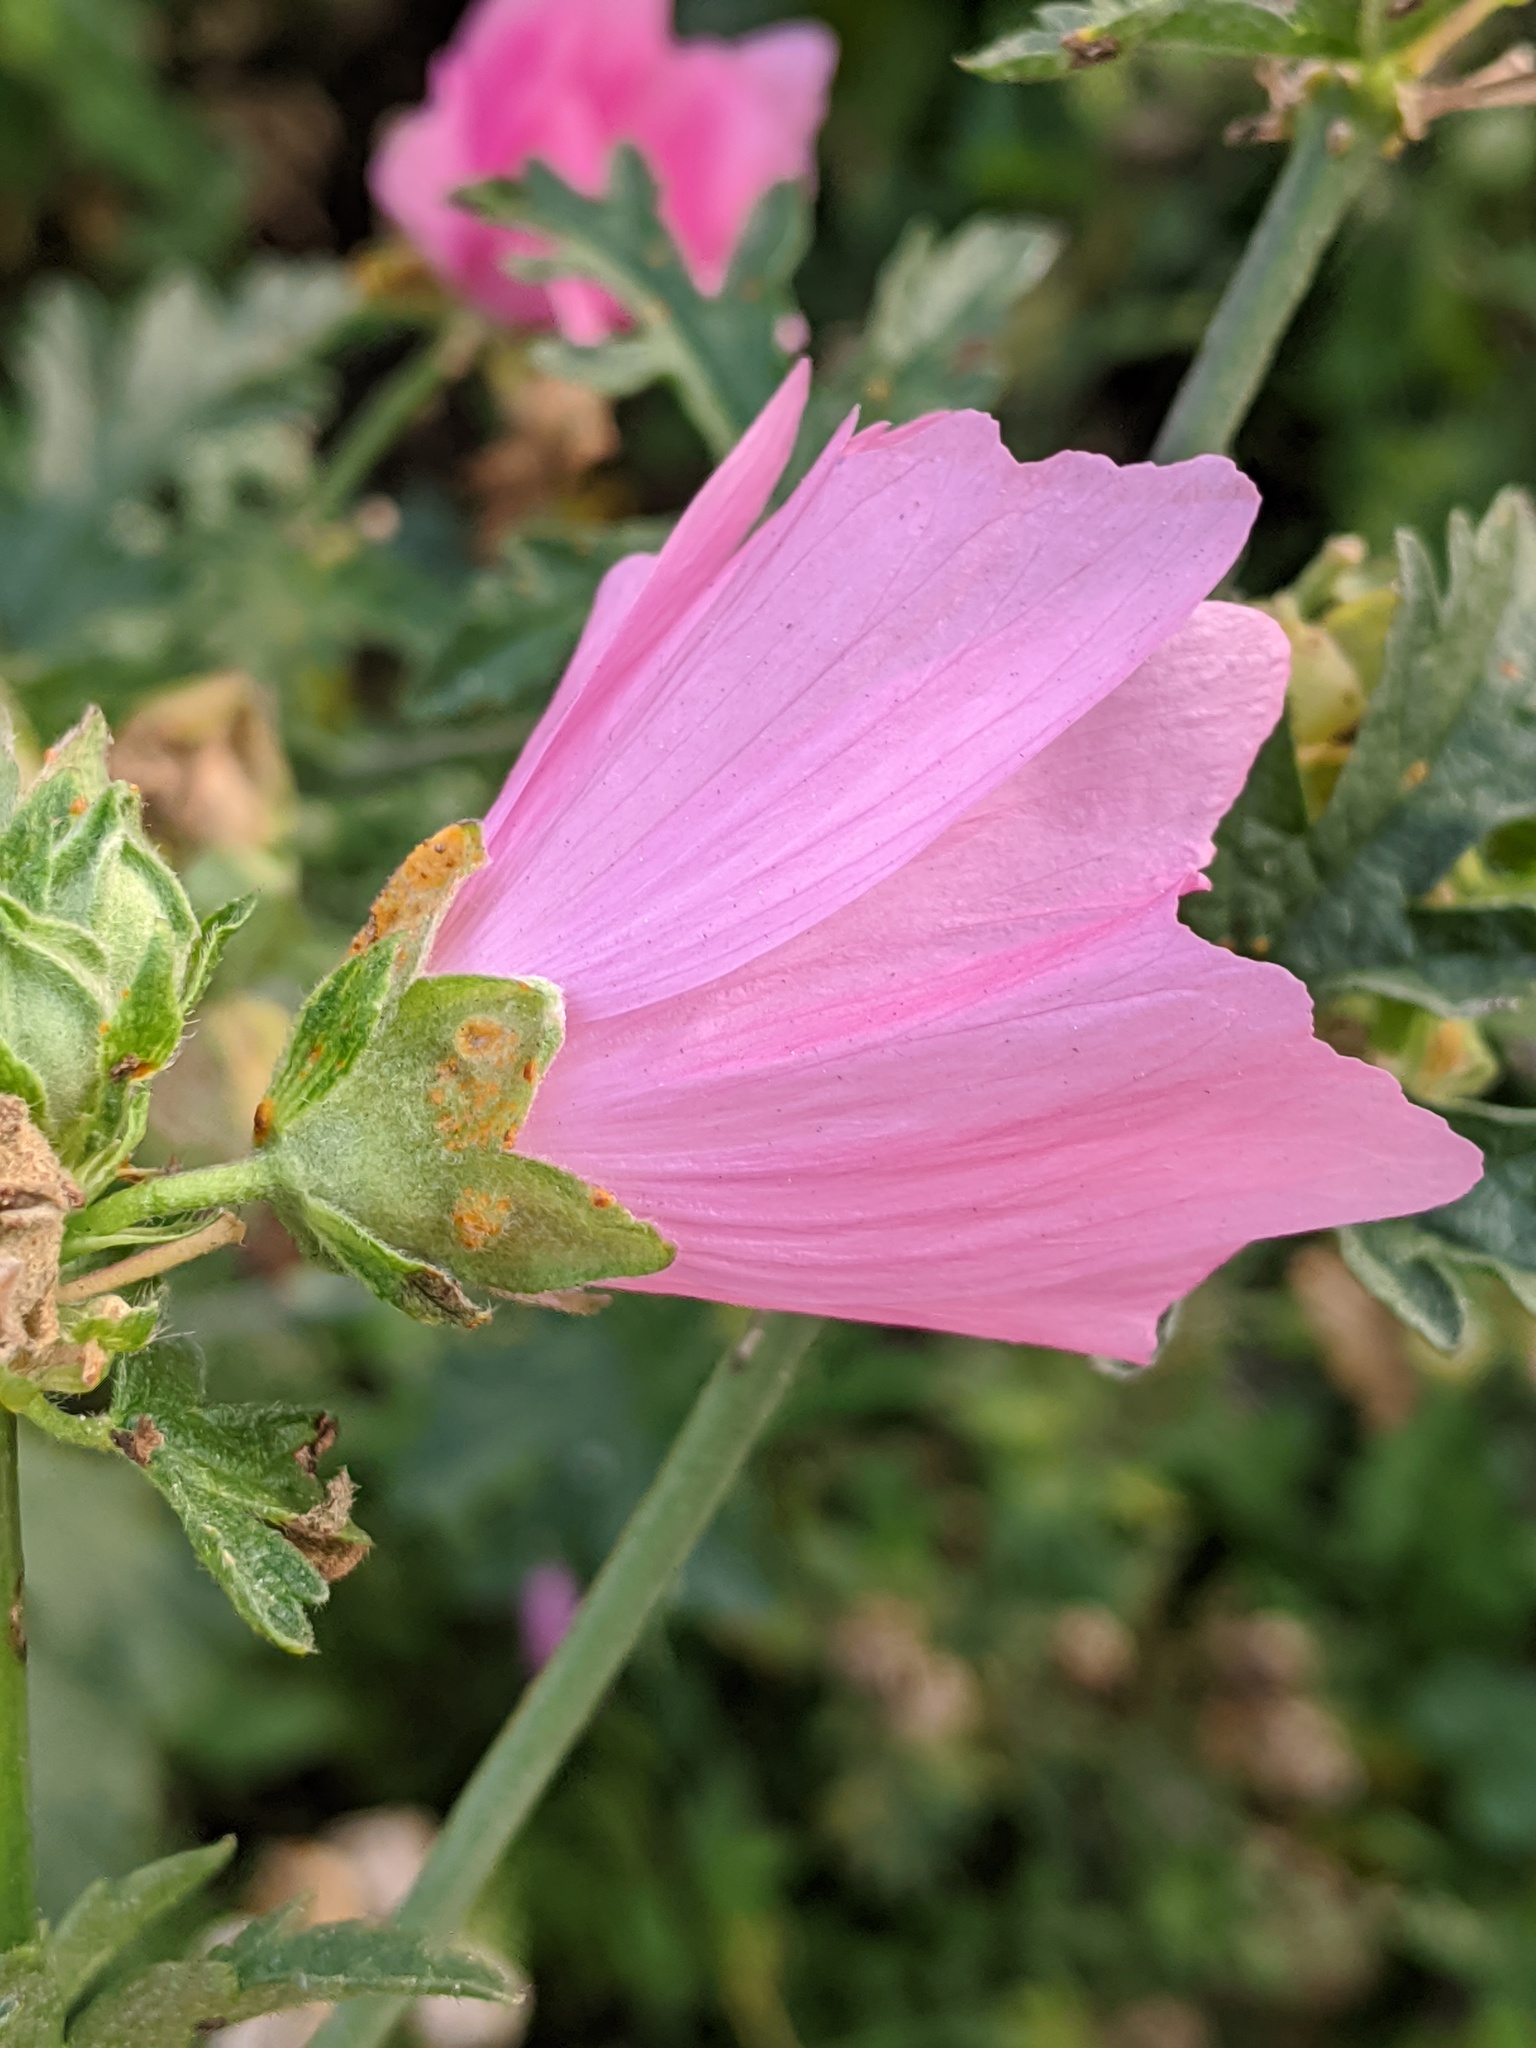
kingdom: Plantae
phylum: Tracheophyta
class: Magnoliopsida
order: Malvales
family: Malvaceae
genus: Malva
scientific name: Malva moschata
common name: Musk mallow
